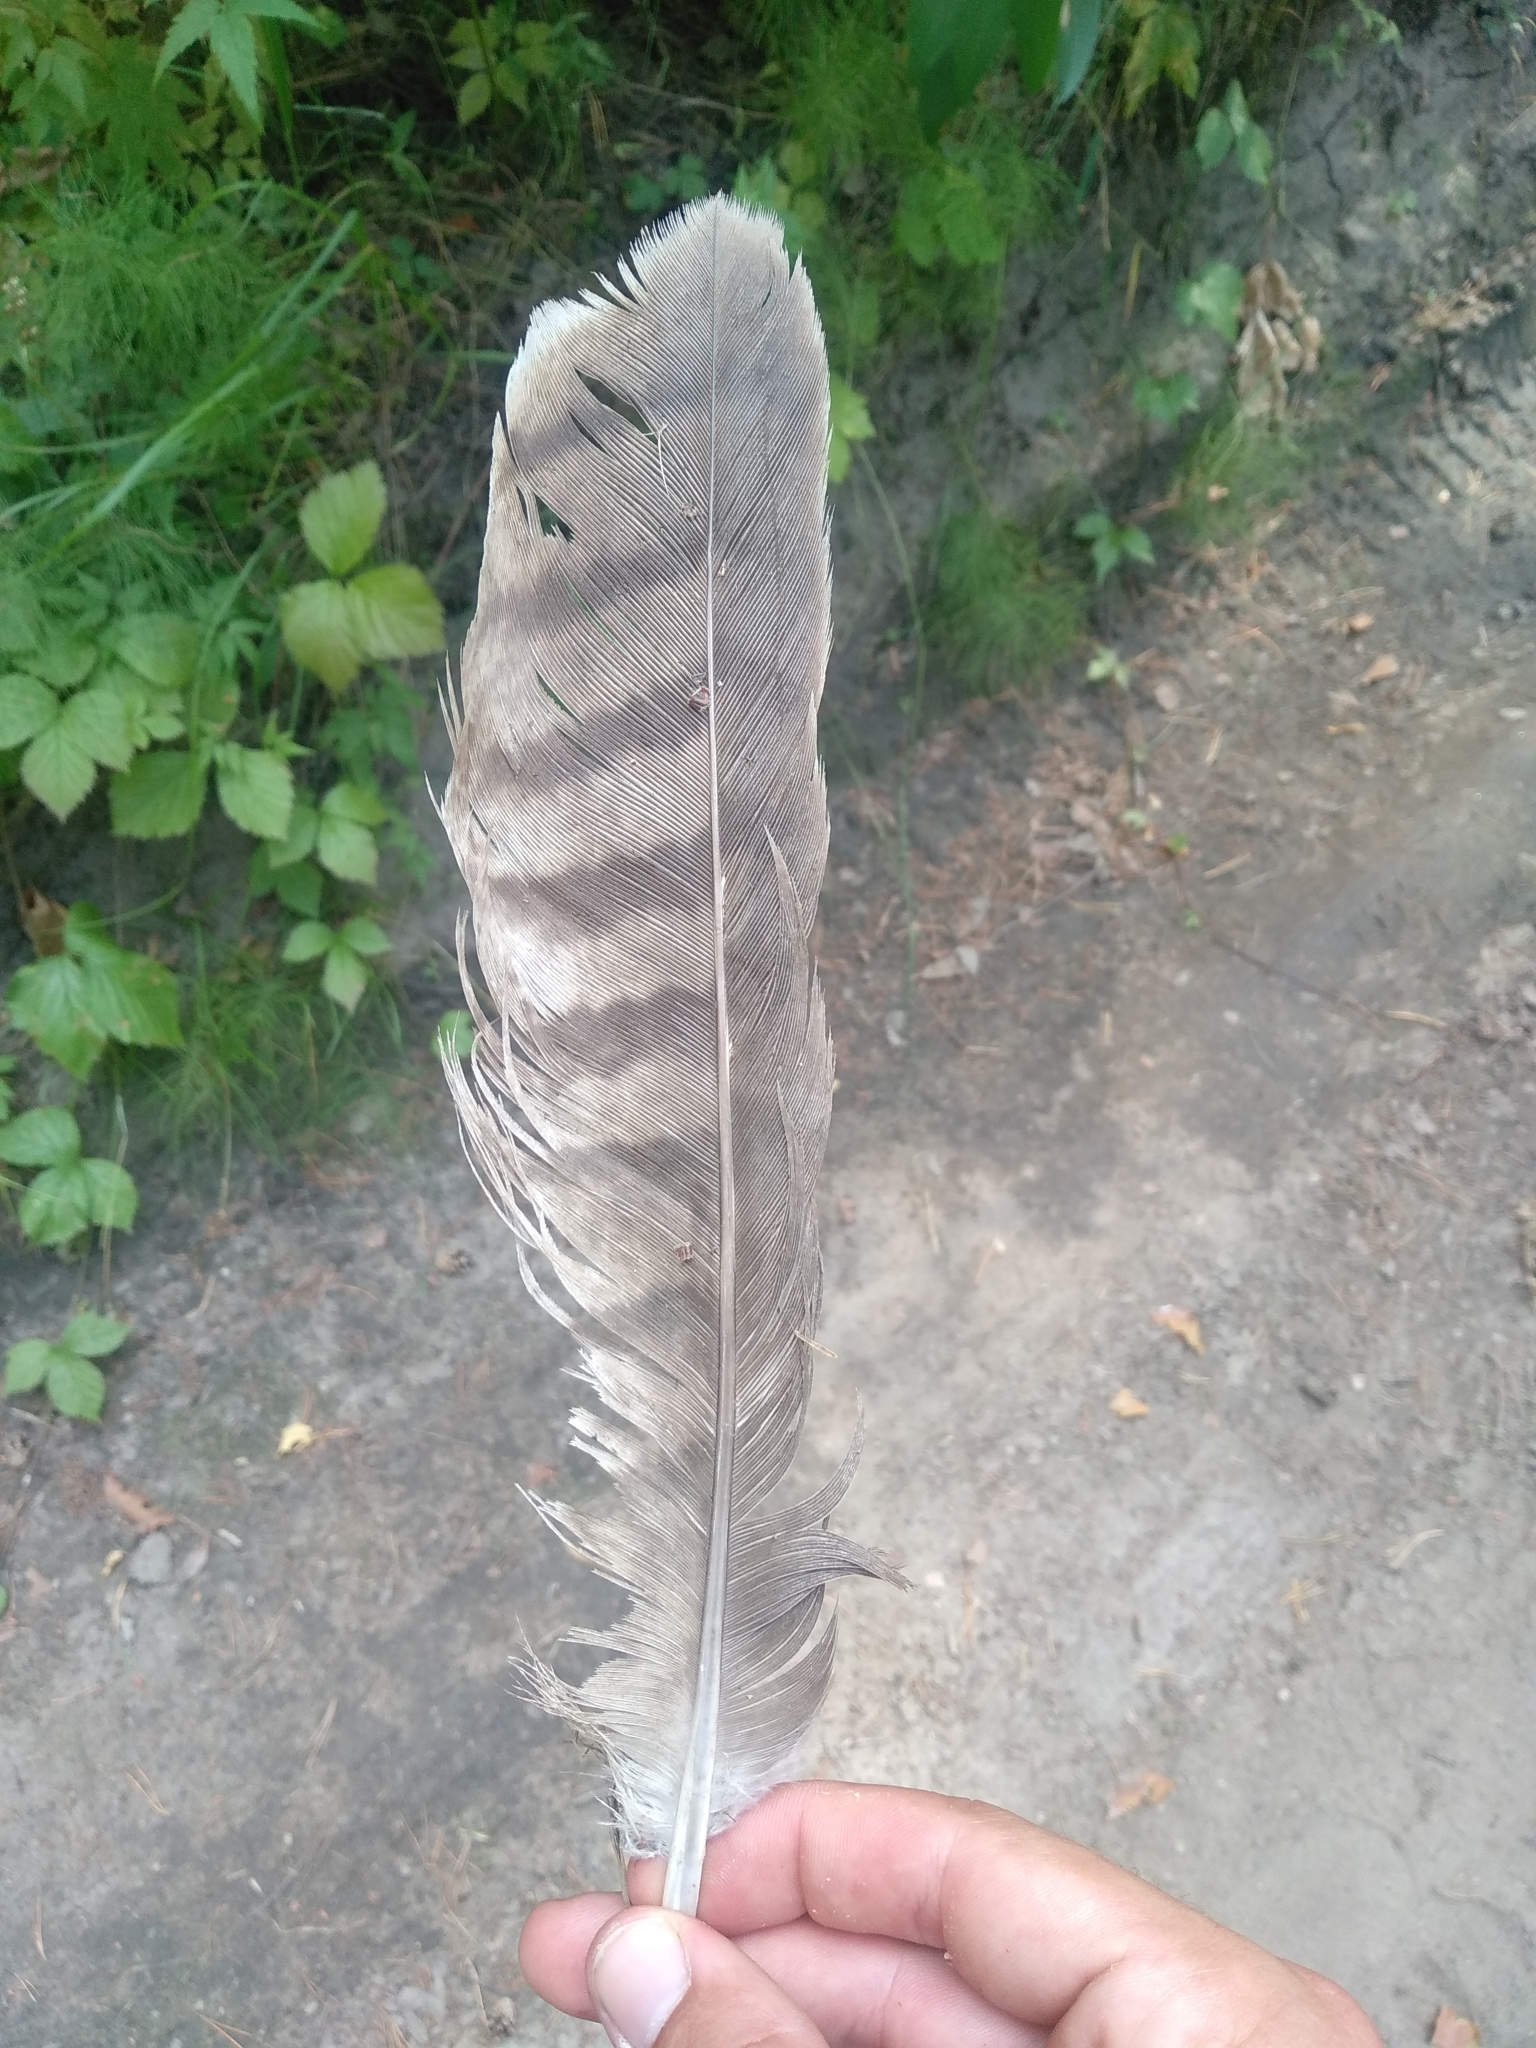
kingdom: Animalia
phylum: Chordata
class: Aves
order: Accipitriformes
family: Accipitridae
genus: Milvus
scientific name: Milvus migrans
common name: Black kite
